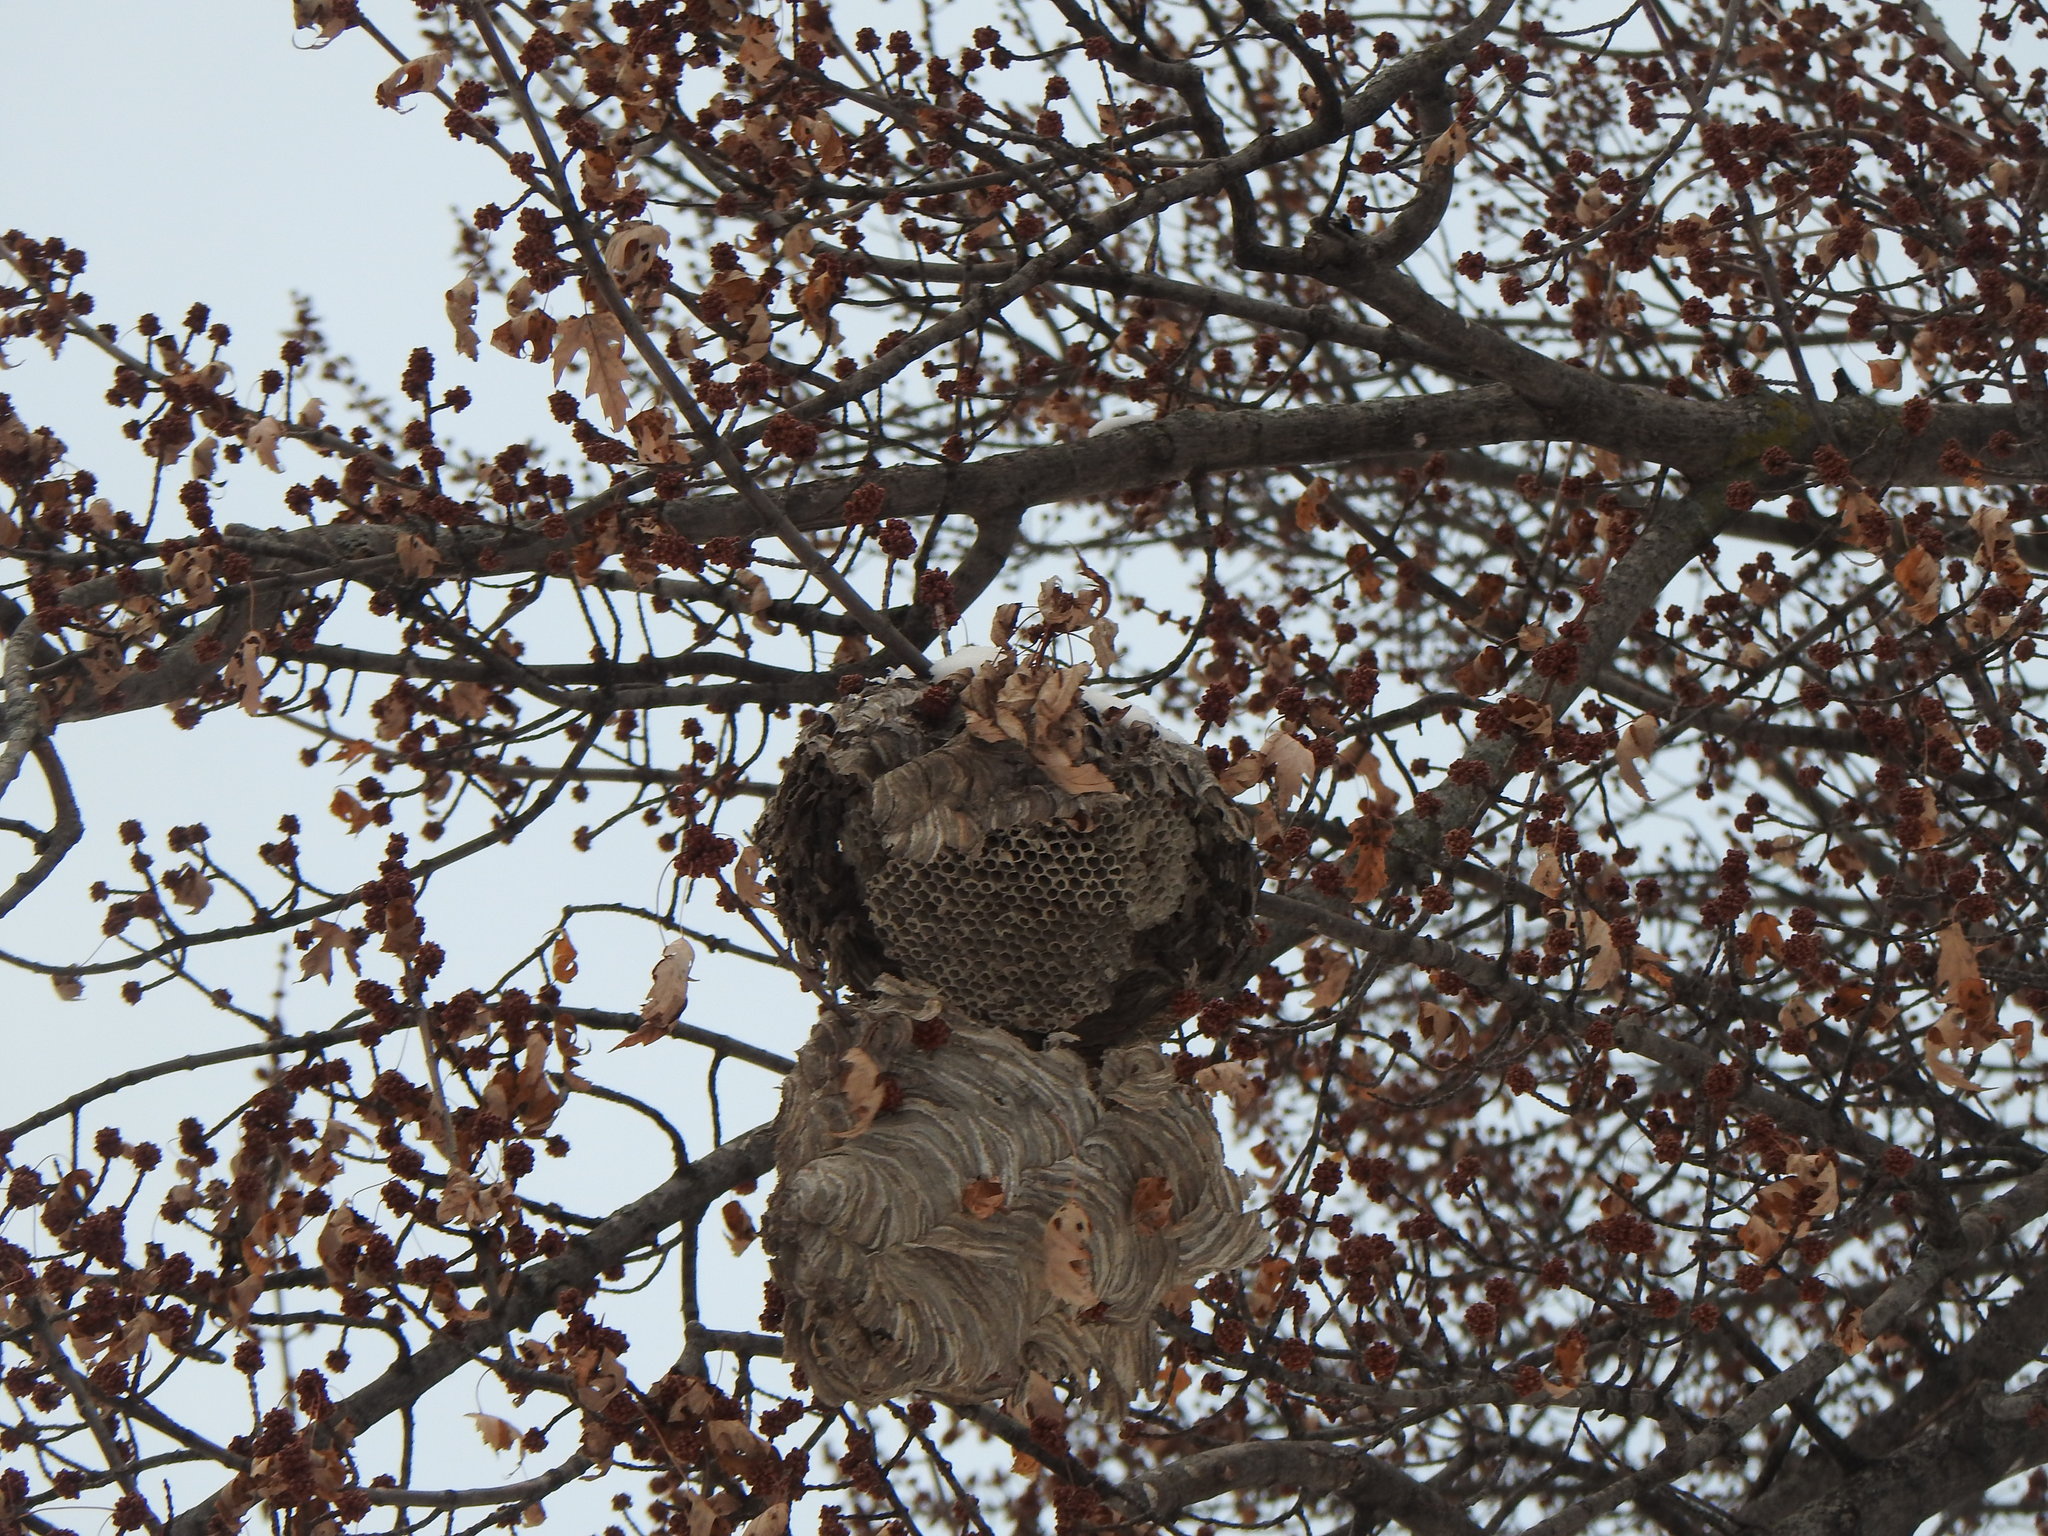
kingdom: Animalia
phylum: Arthropoda
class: Insecta
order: Hymenoptera
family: Vespidae
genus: Dolichovespula
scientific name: Dolichovespula maculata
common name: Bald-faced hornet
